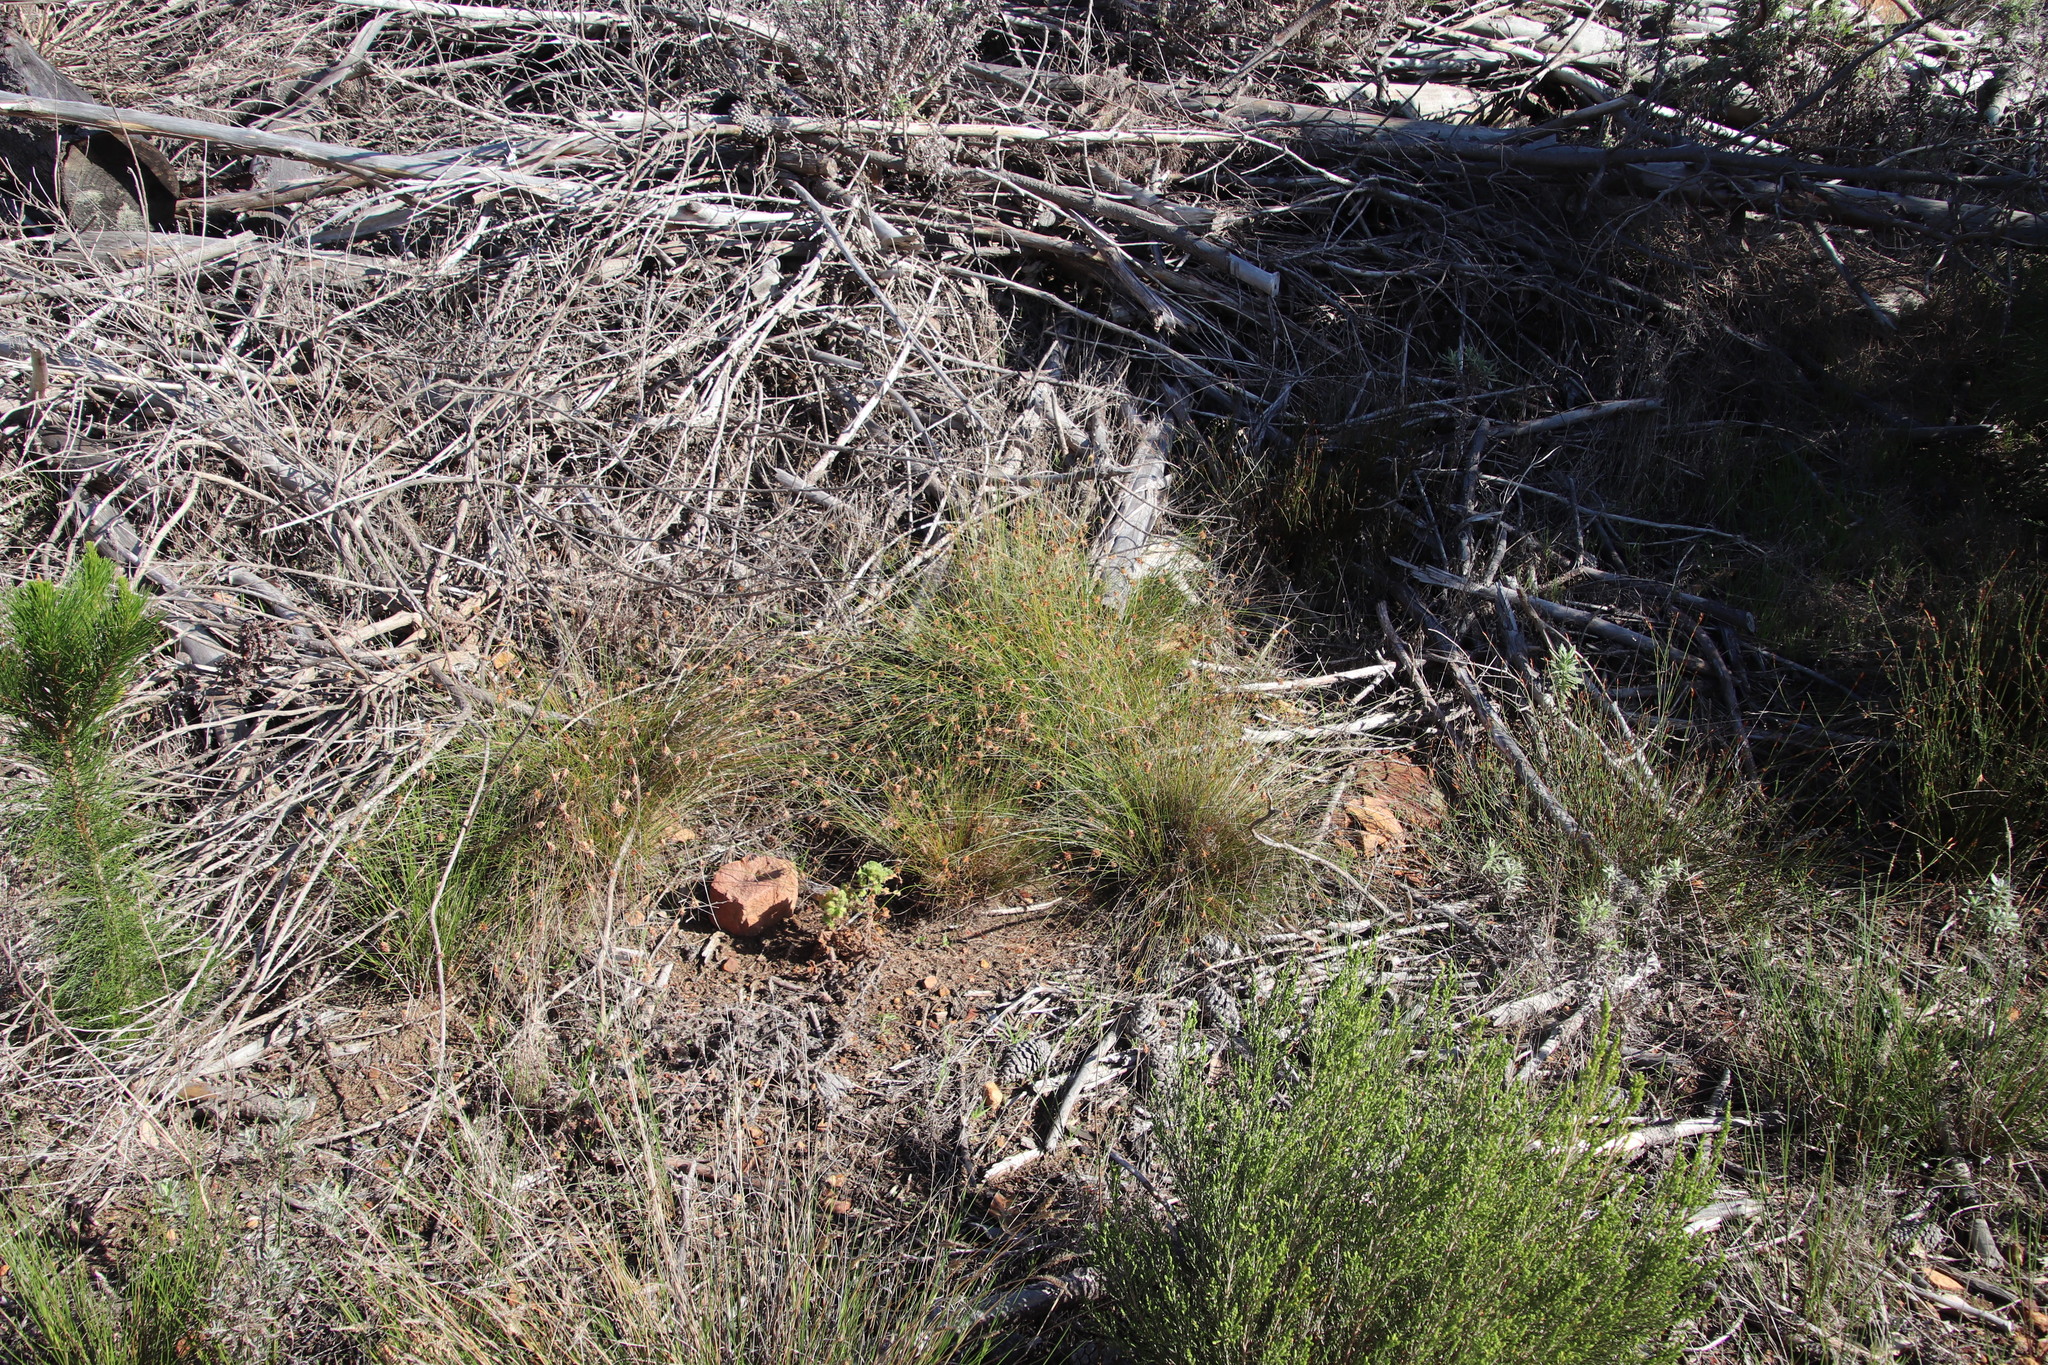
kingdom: Plantae
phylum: Tracheophyta
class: Liliopsida
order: Poales
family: Cyperaceae
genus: Ficinia
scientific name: Ficinia nigrescens
